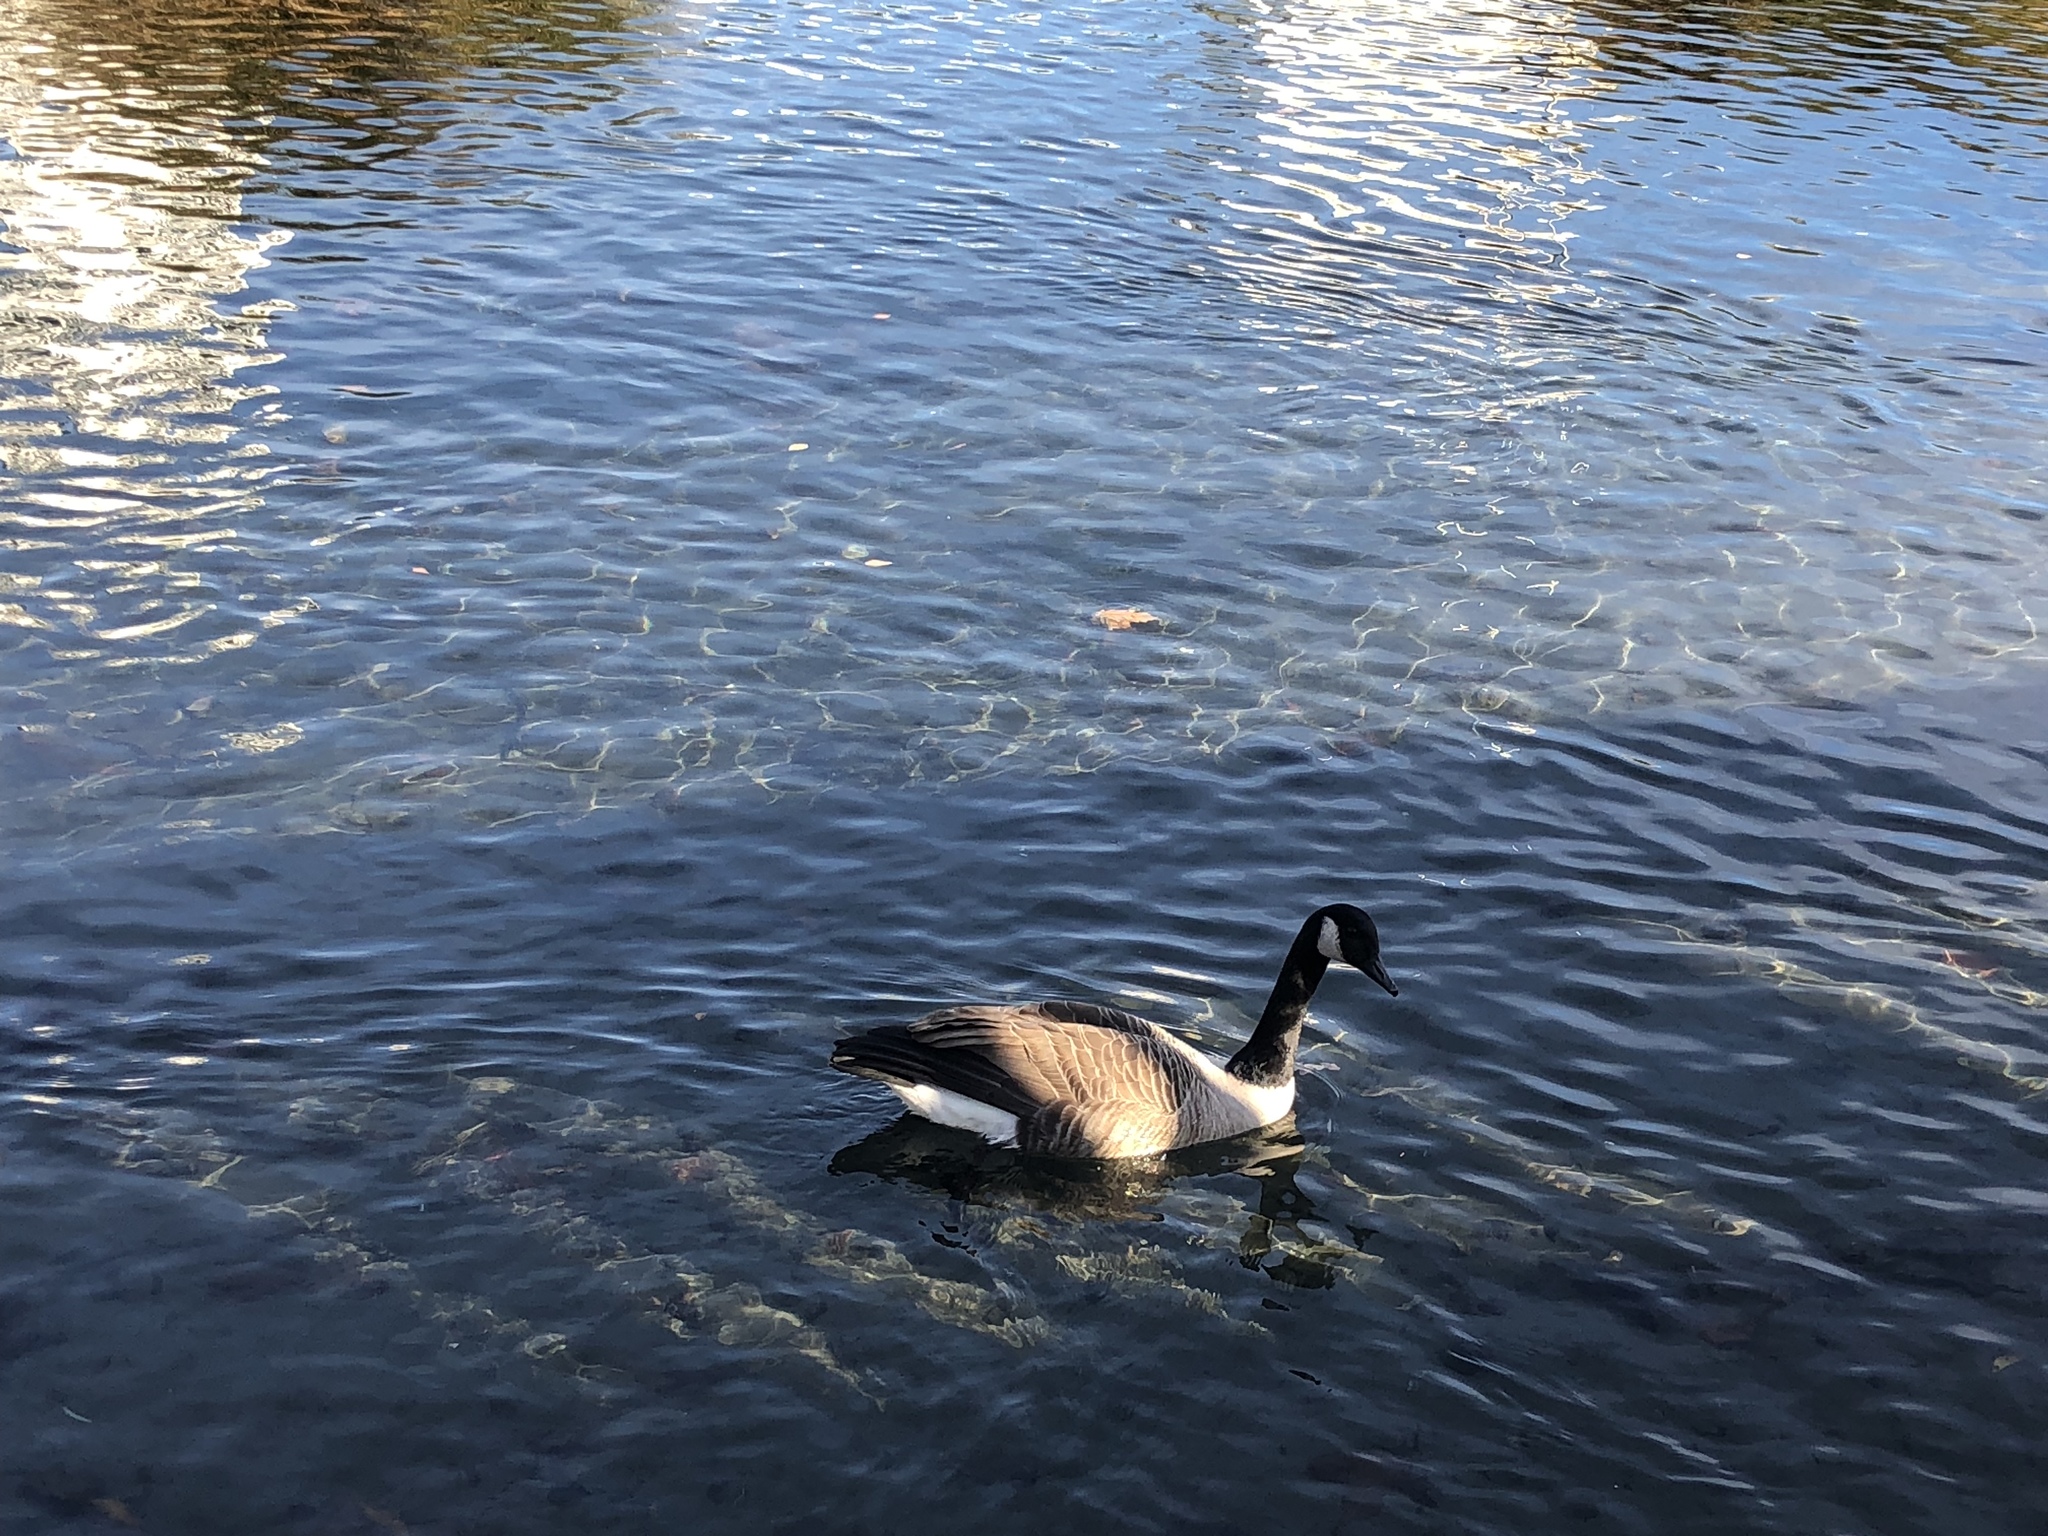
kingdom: Animalia
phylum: Chordata
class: Aves
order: Anseriformes
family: Anatidae
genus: Branta
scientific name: Branta canadensis
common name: Canada goose
